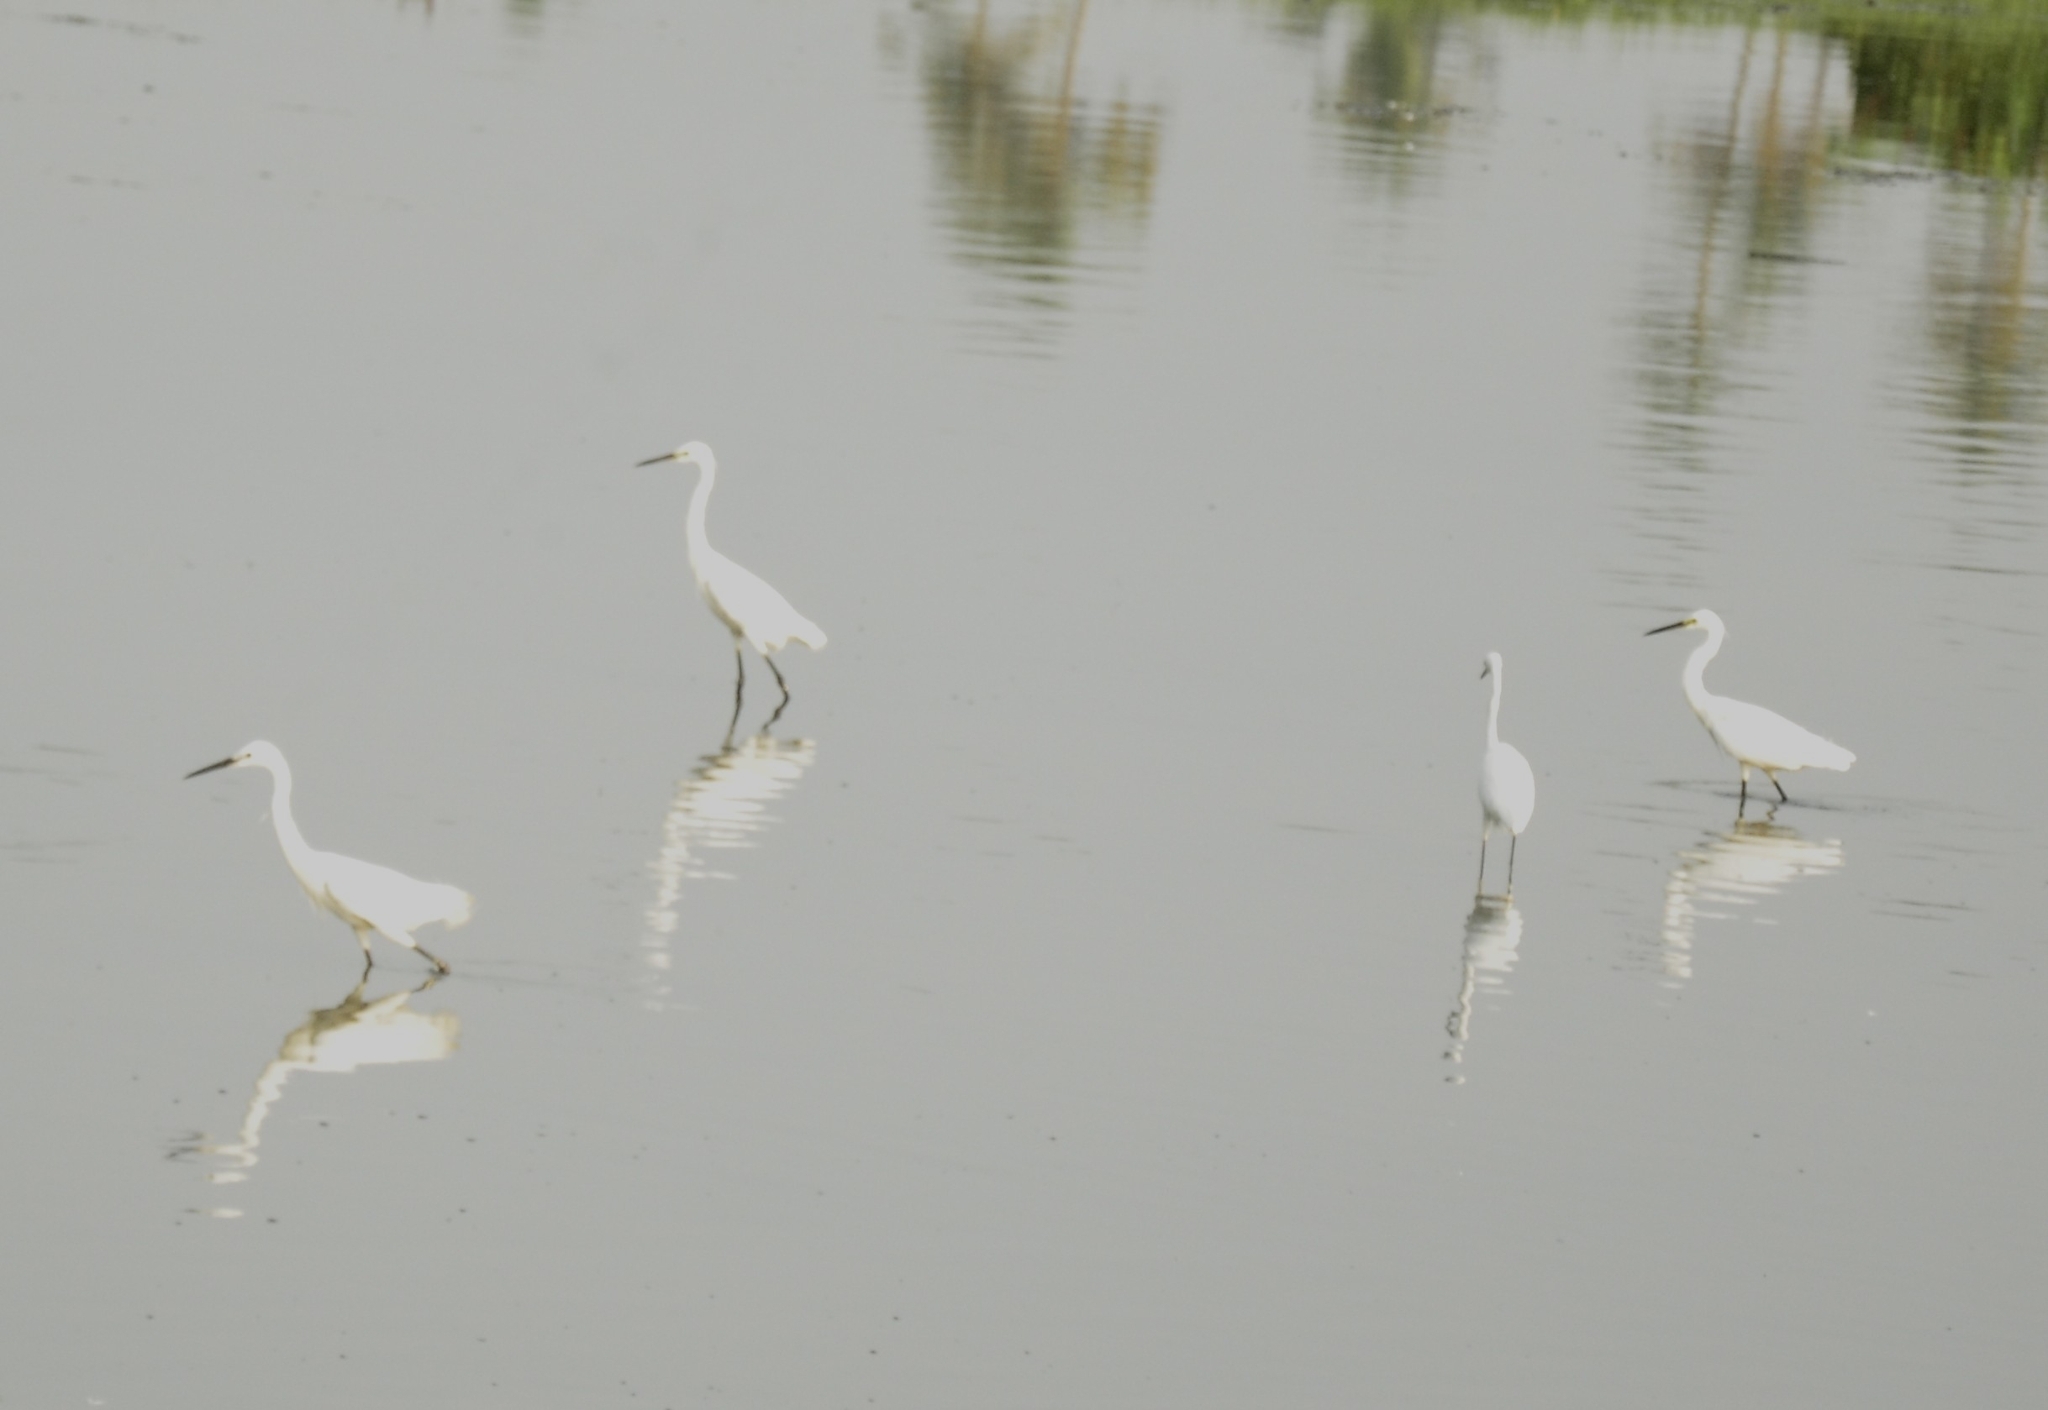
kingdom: Animalia
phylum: Chordata
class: Aves
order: Pelecaniformes
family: Ardeidae
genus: Egretta
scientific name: Egretta garzetta
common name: Little egret
